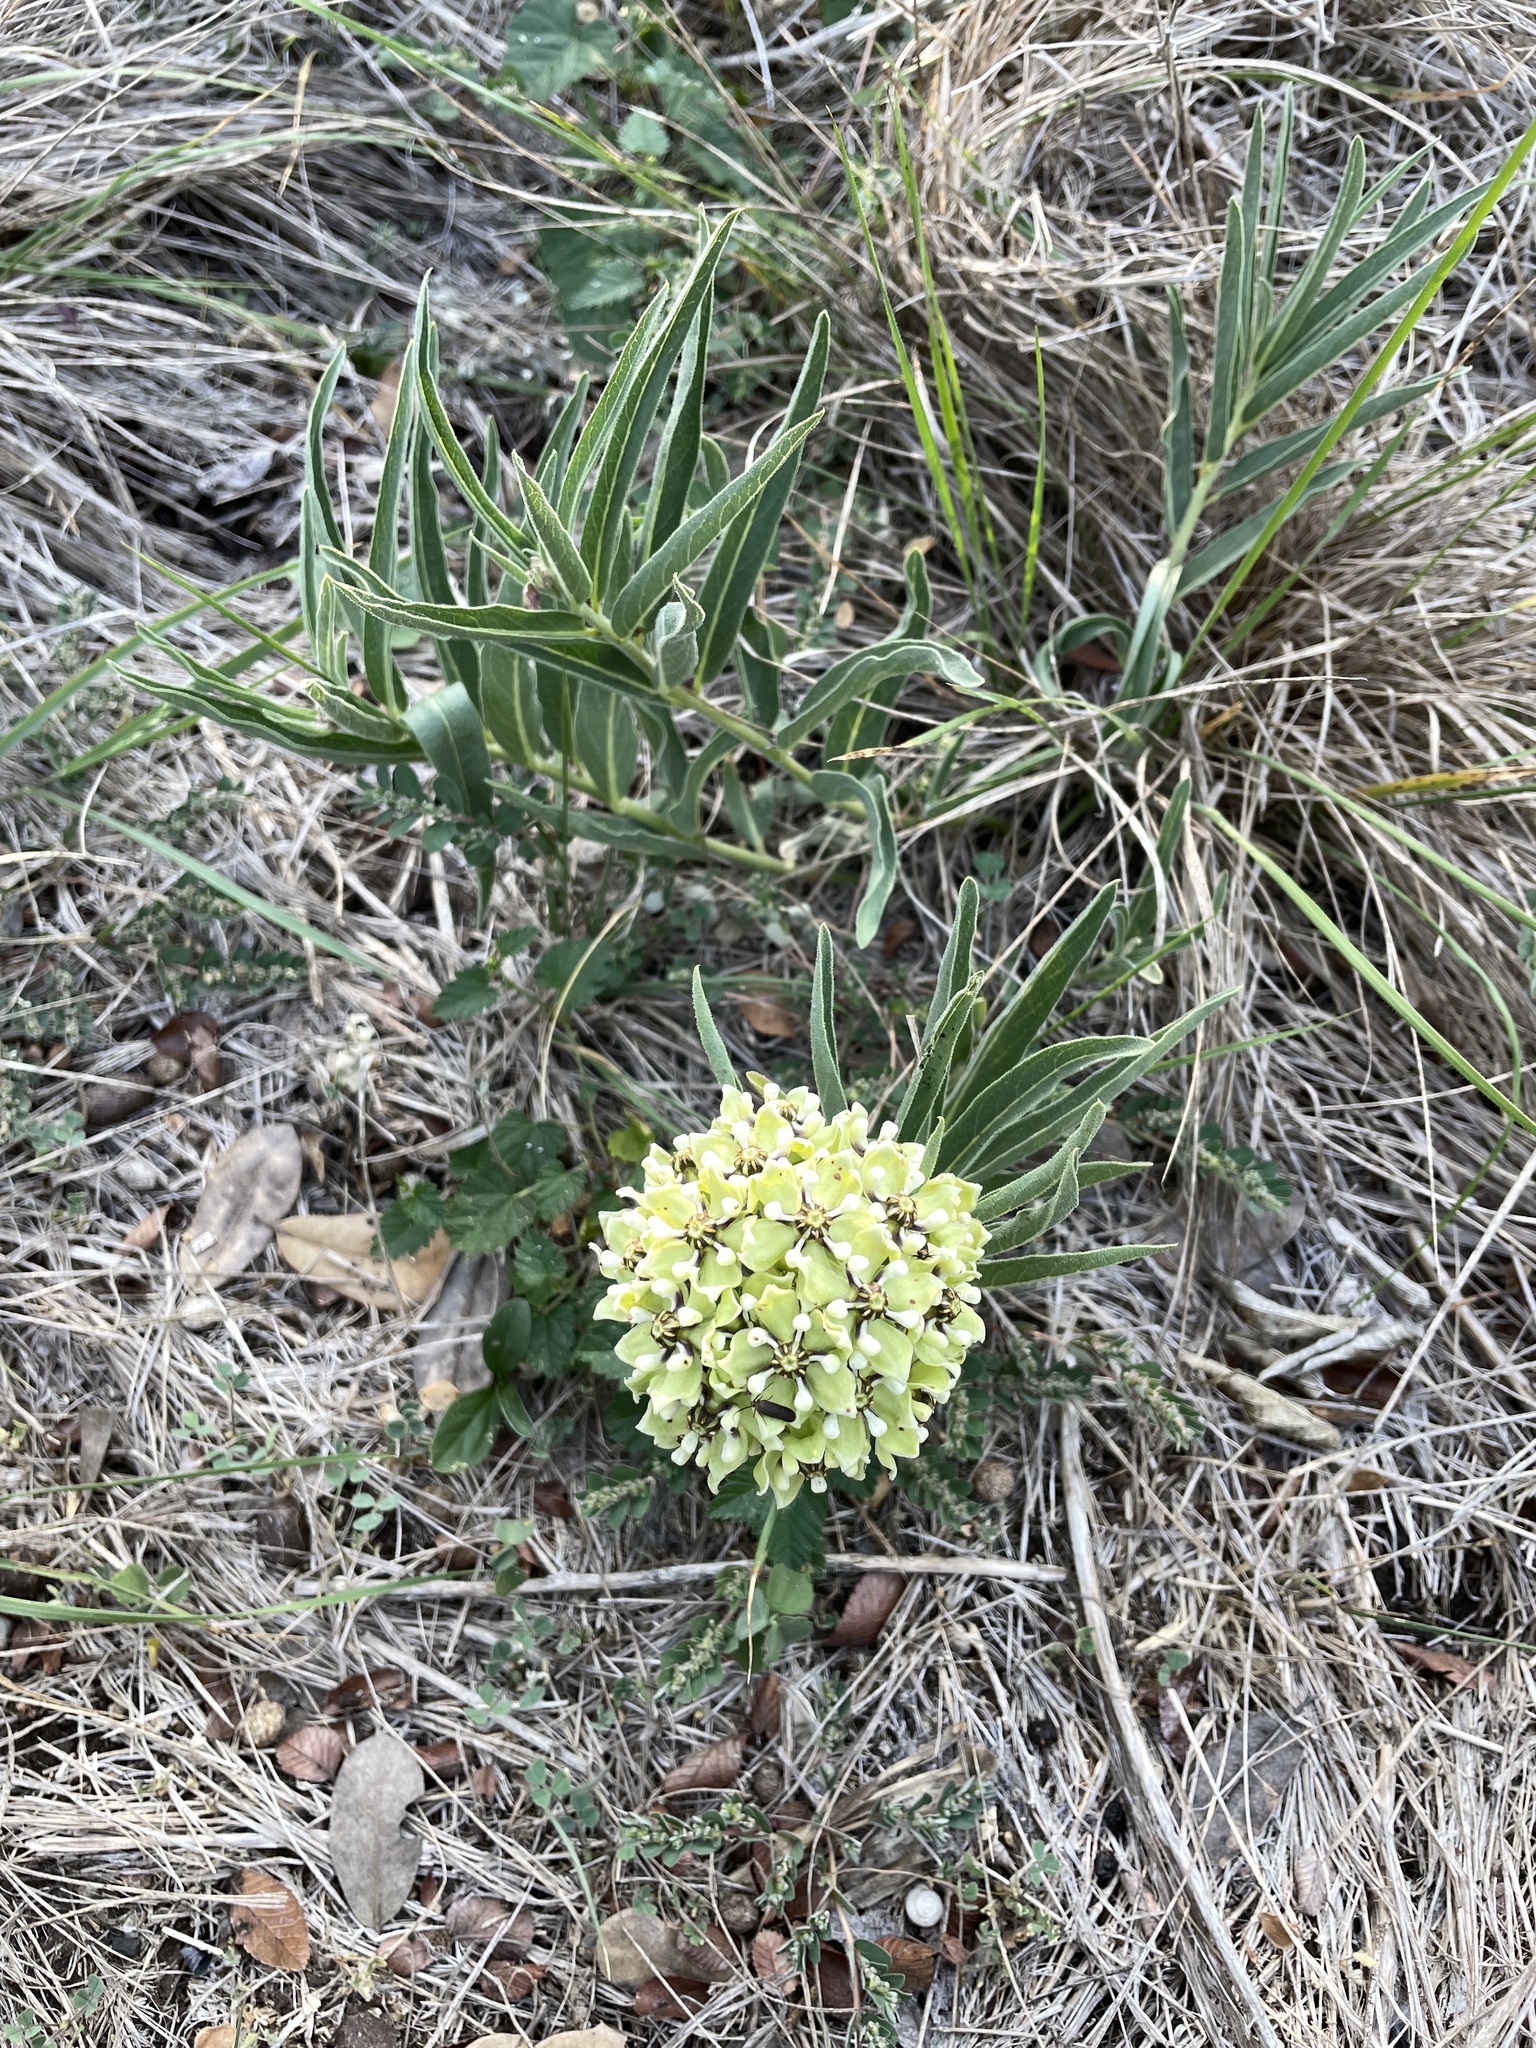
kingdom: Plantae
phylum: Tracheophyta
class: Magnoliopsida
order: Gentianales
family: Apocynaceae
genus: Asclepias
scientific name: Asclepias asperula
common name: Antelope horns
